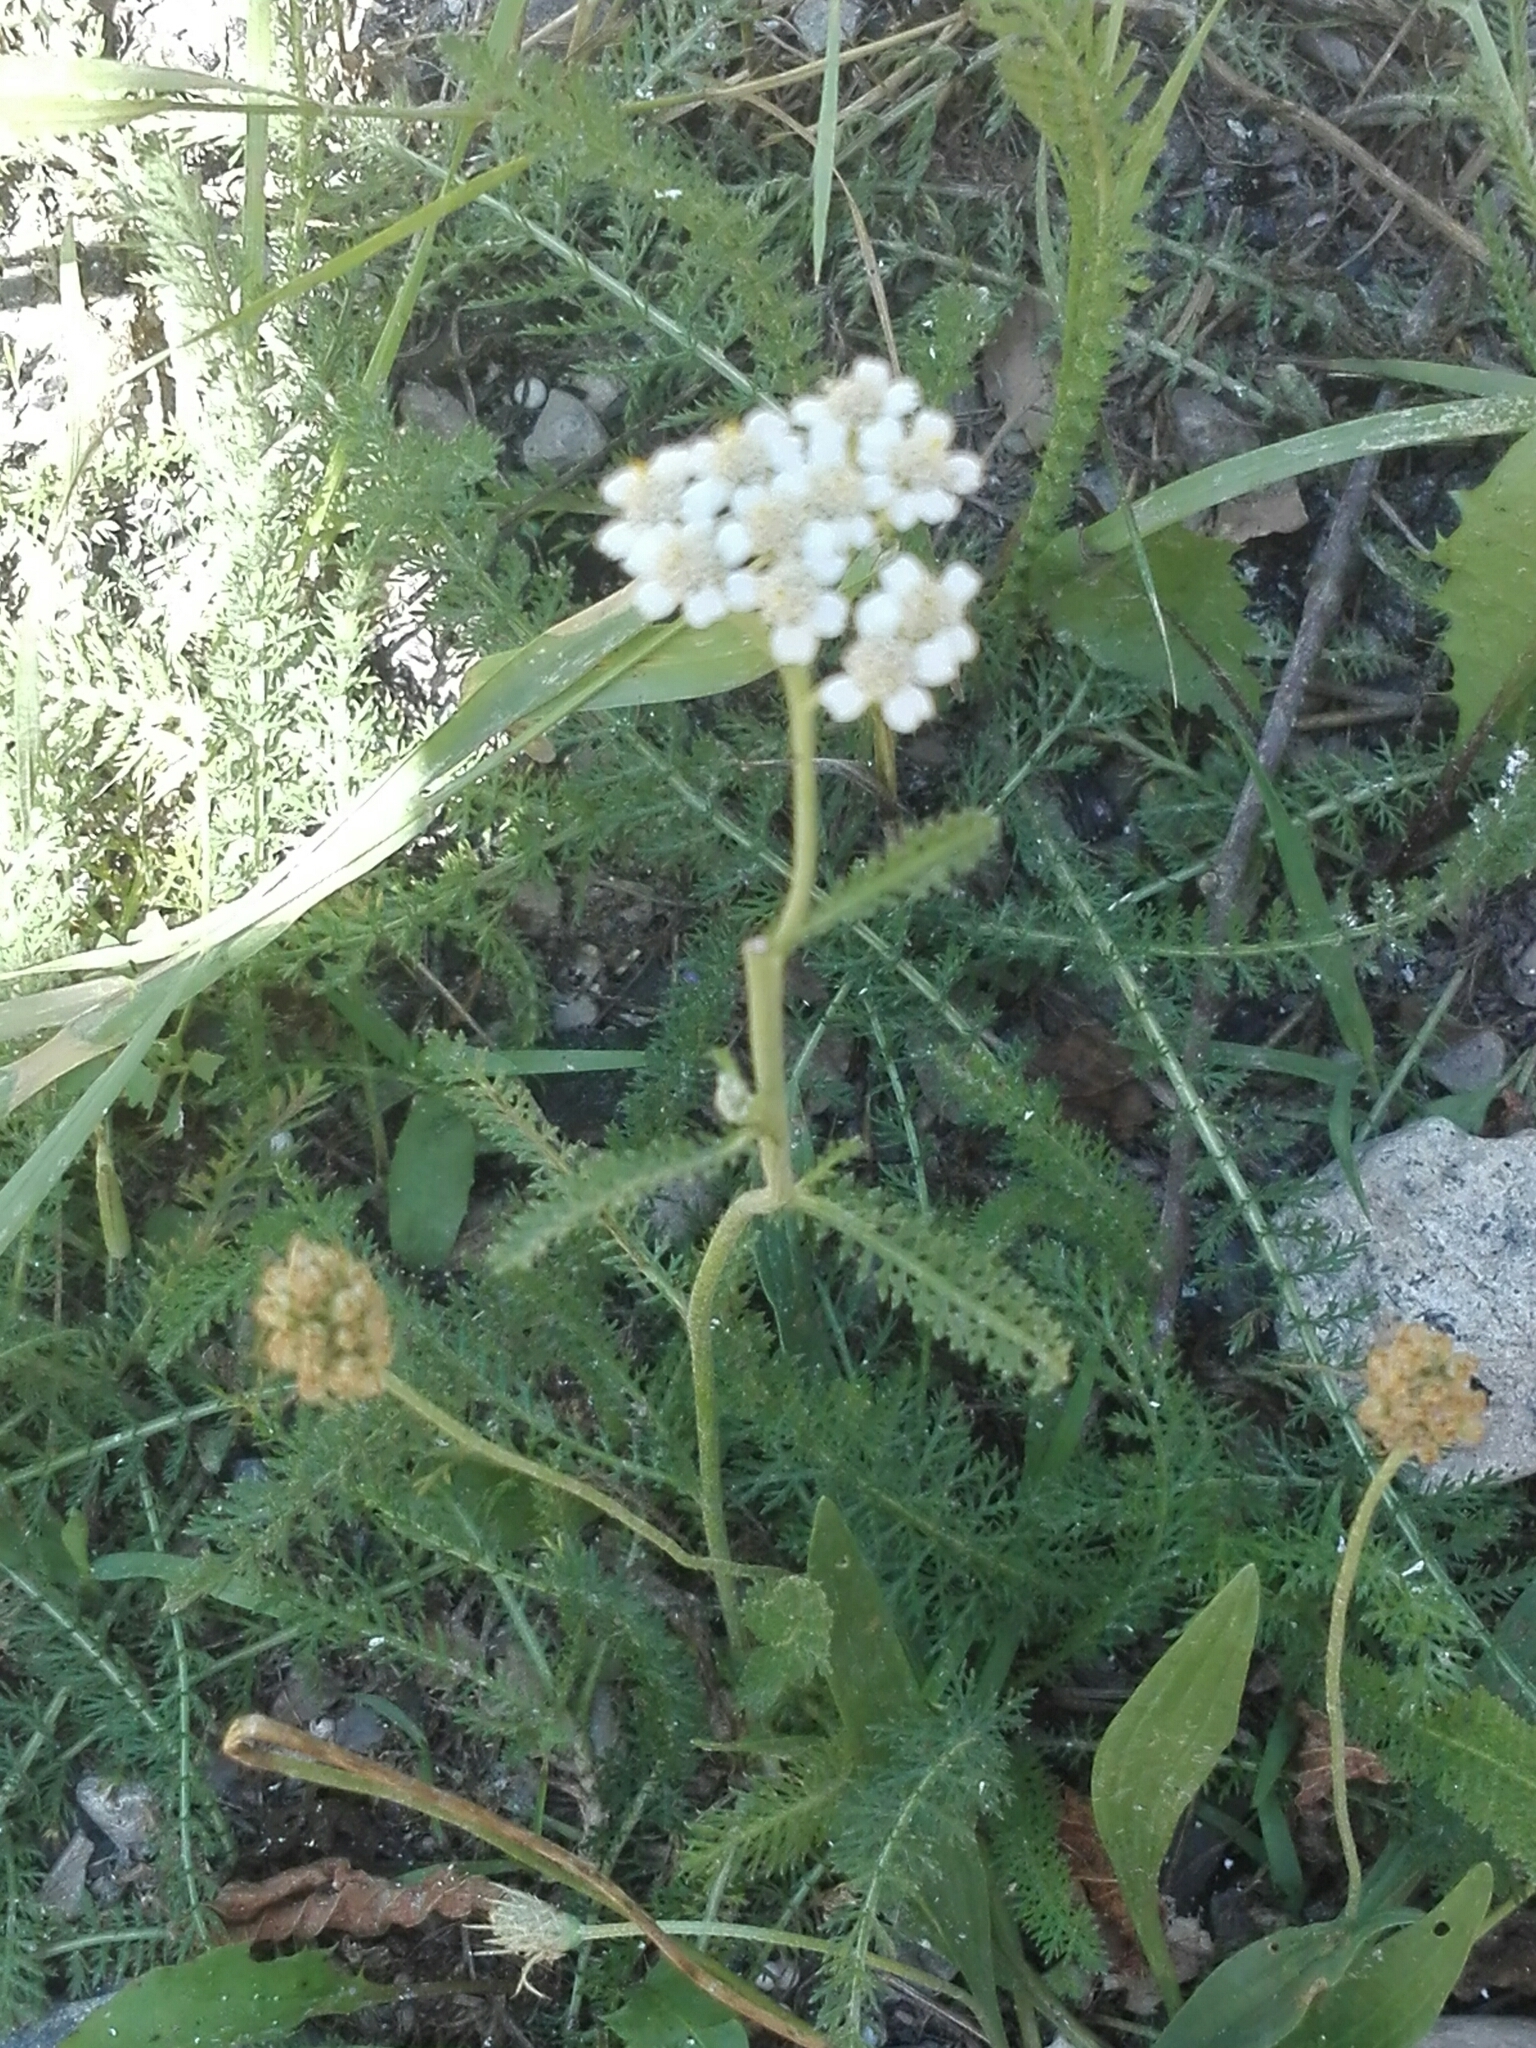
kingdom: Plantae
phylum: Tracheophyta
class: Magnoliopsida
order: Asterales
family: Asteraceae
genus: Achillea
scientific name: Achillea millefolium
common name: Yarrow
